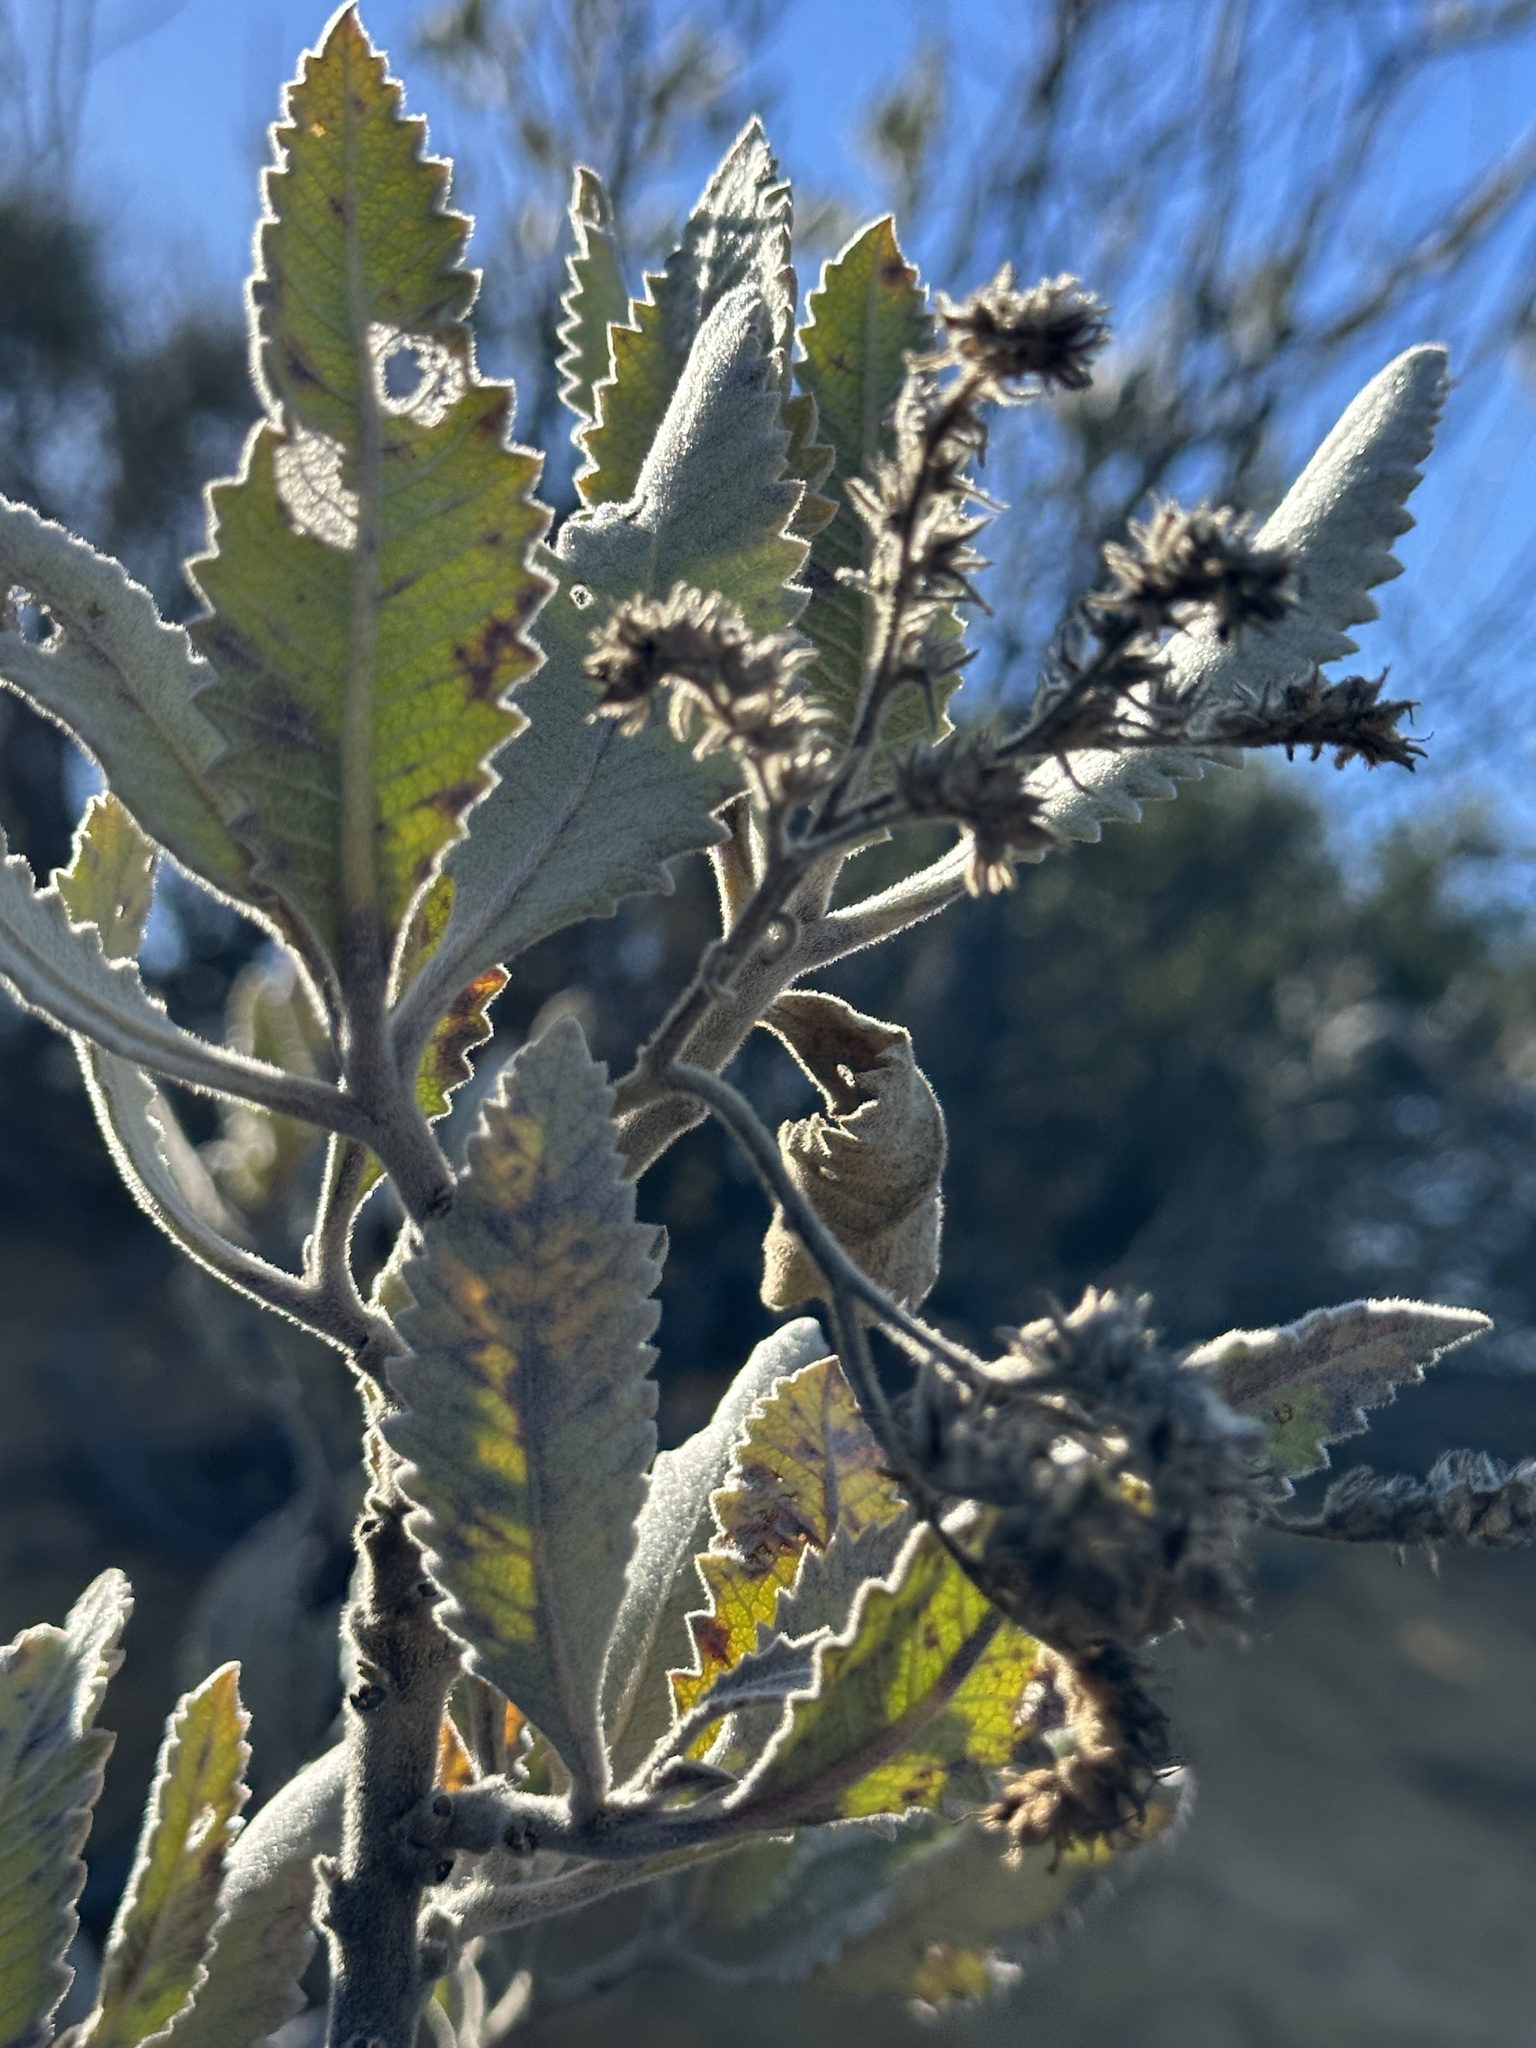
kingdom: Plantae
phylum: Tracheophyta
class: Magnoliopsida
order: Boraginales
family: Namaceae
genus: Eriodictyon
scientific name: Eriodictyon crassifolium
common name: Thick-leaf yerba-santa
